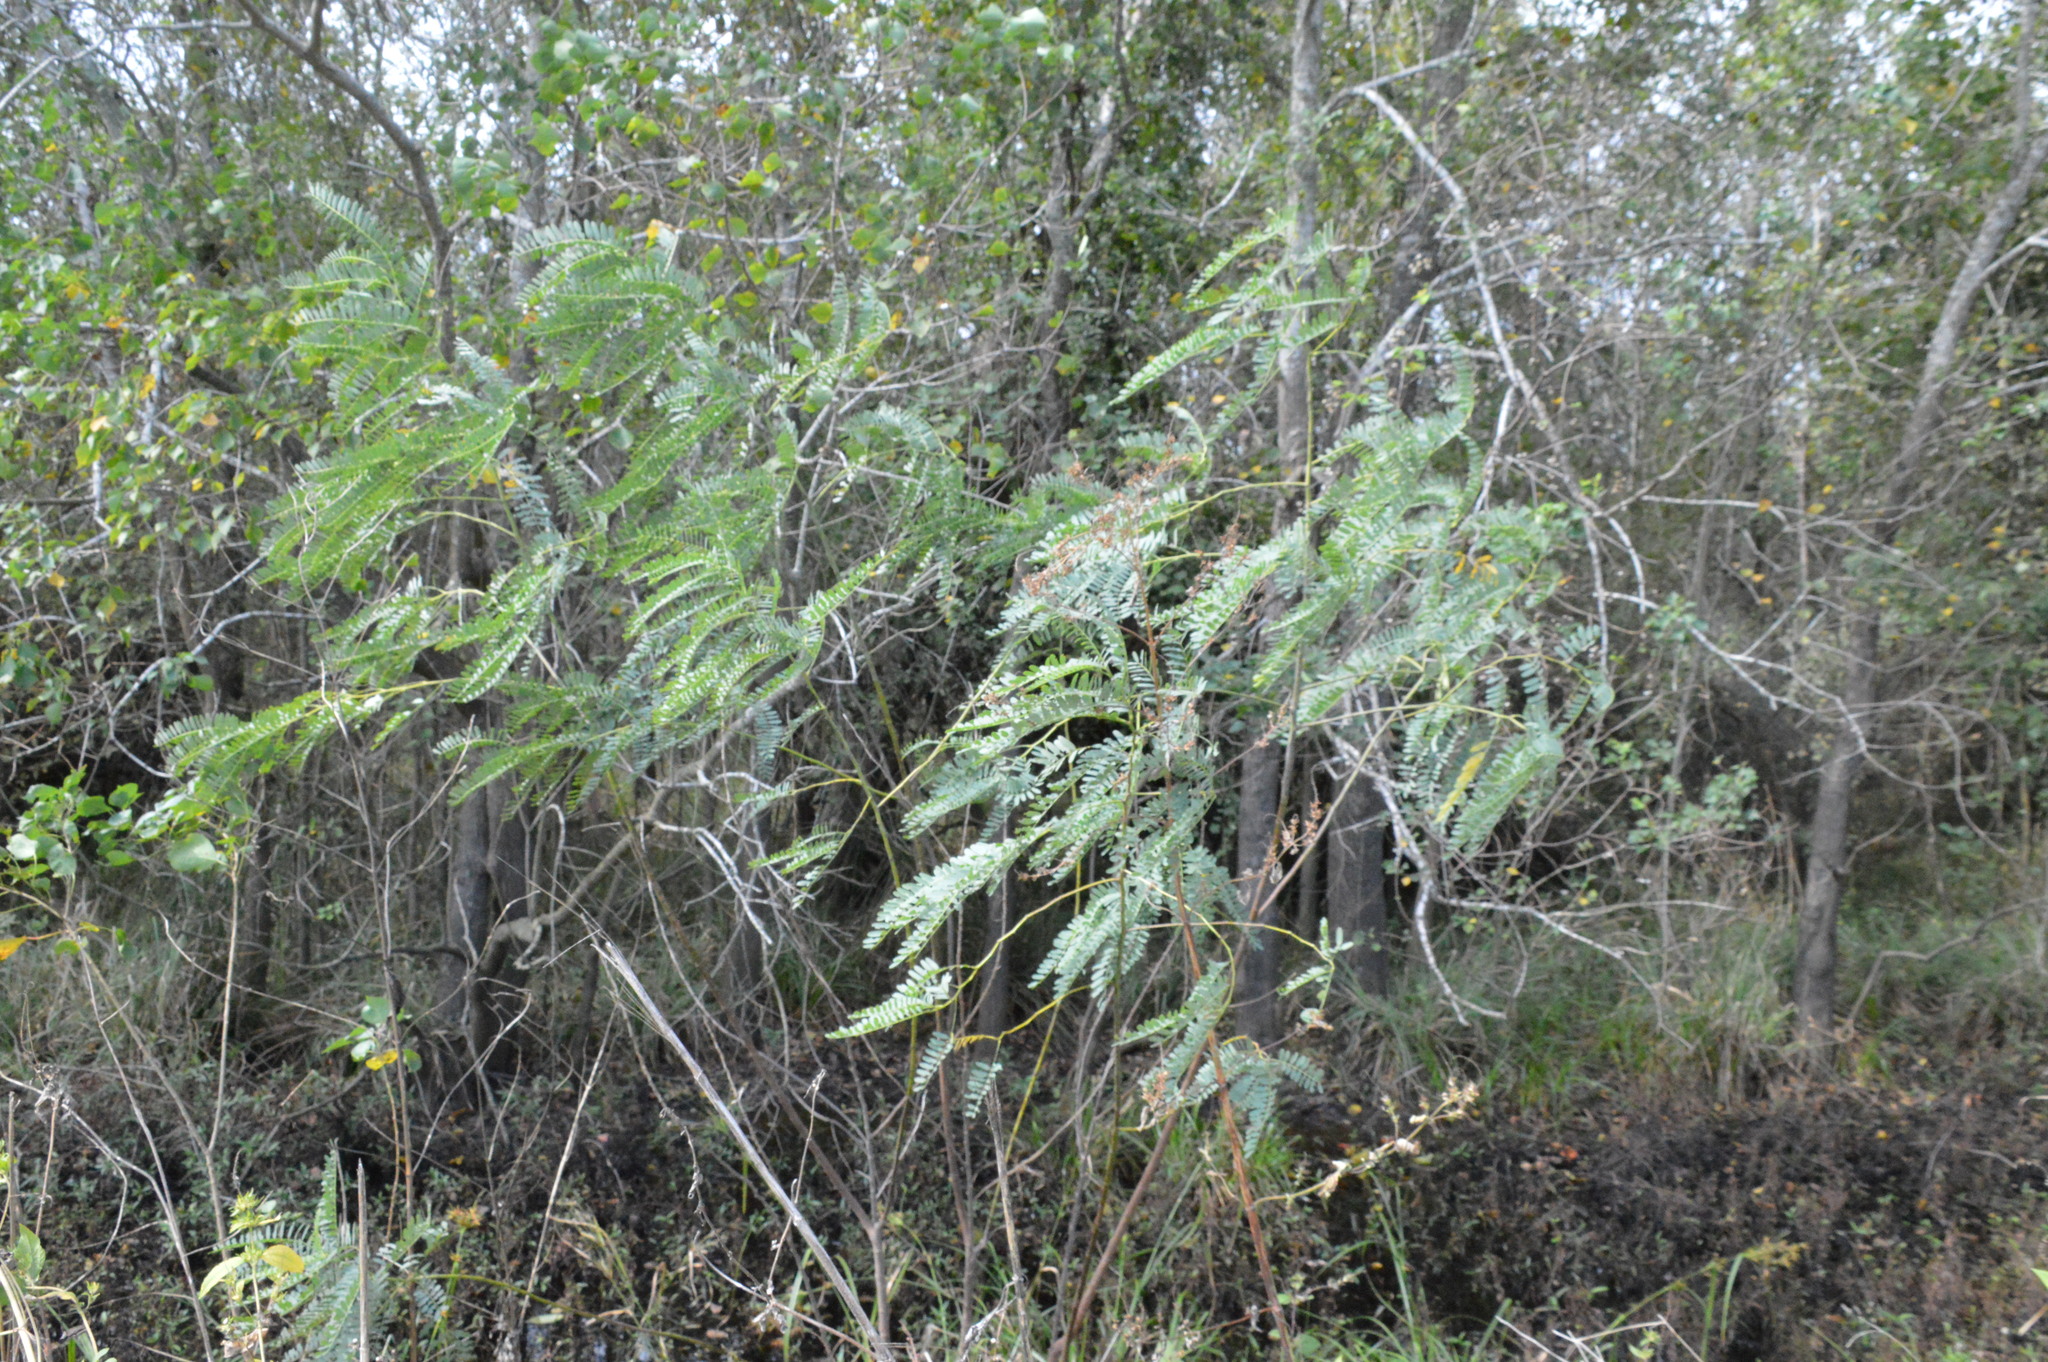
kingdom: Plantae
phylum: Tracheophyta
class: Magnoliopsida
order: Fabales
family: Fabaceae
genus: Sesbania
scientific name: Sesbania drummondii
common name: Poison-bean
